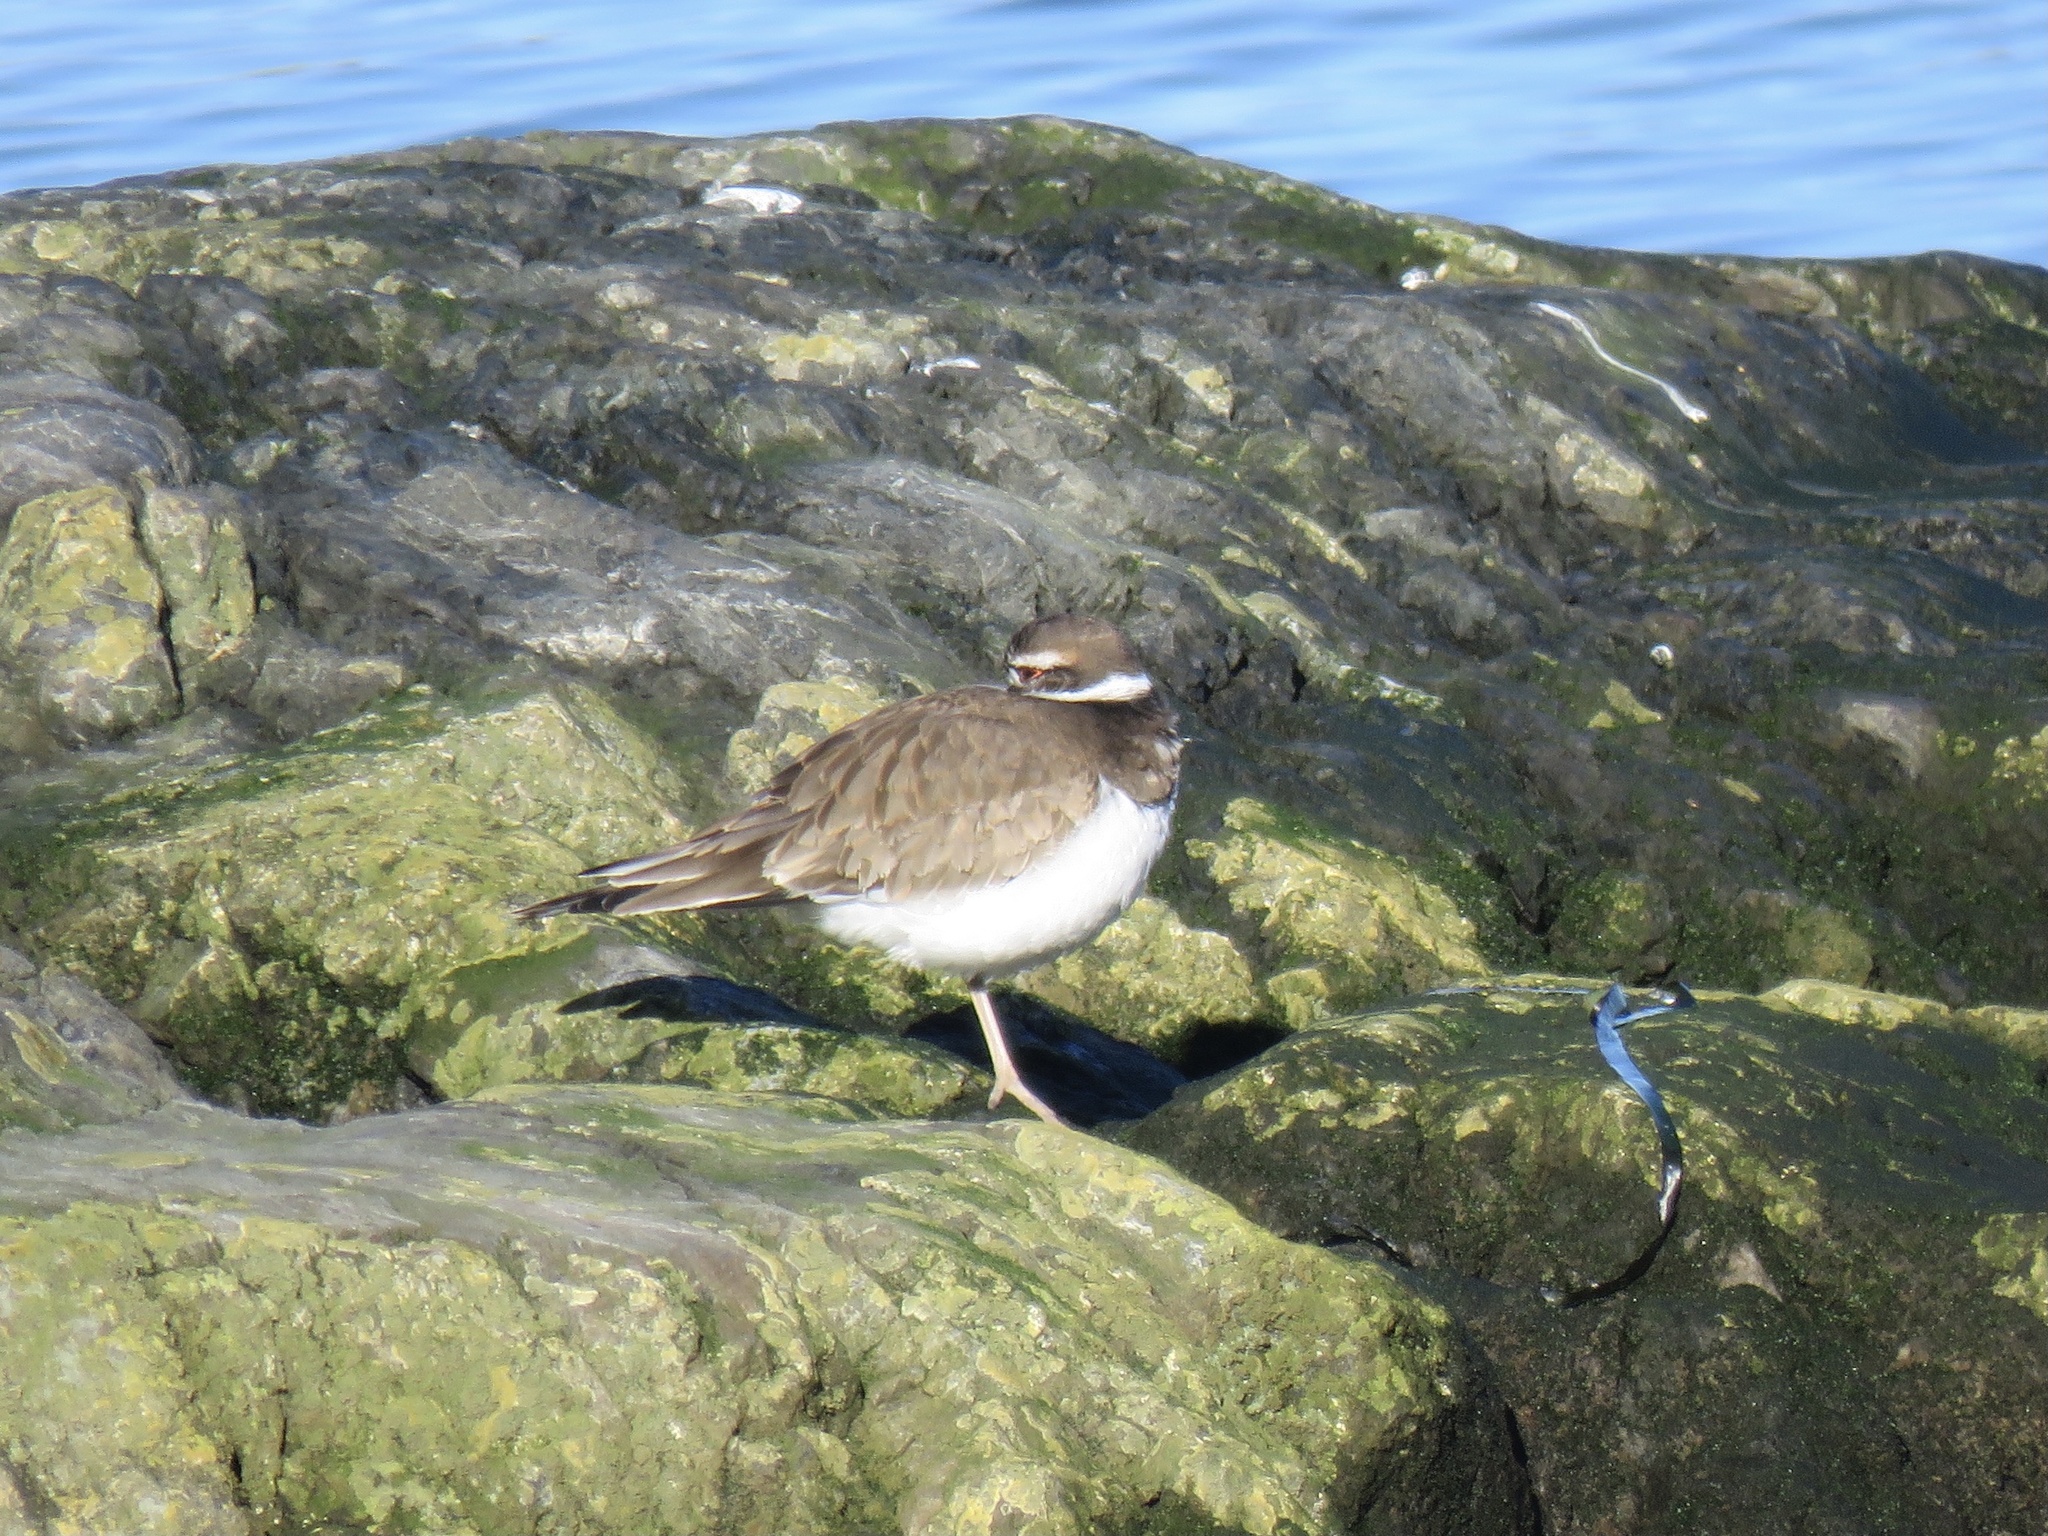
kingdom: Animalia
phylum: Chordata
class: Aves
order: Charadriiformes
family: Charadriidae
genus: Charadrius
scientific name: Charadrius vociferus
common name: Killdeer
